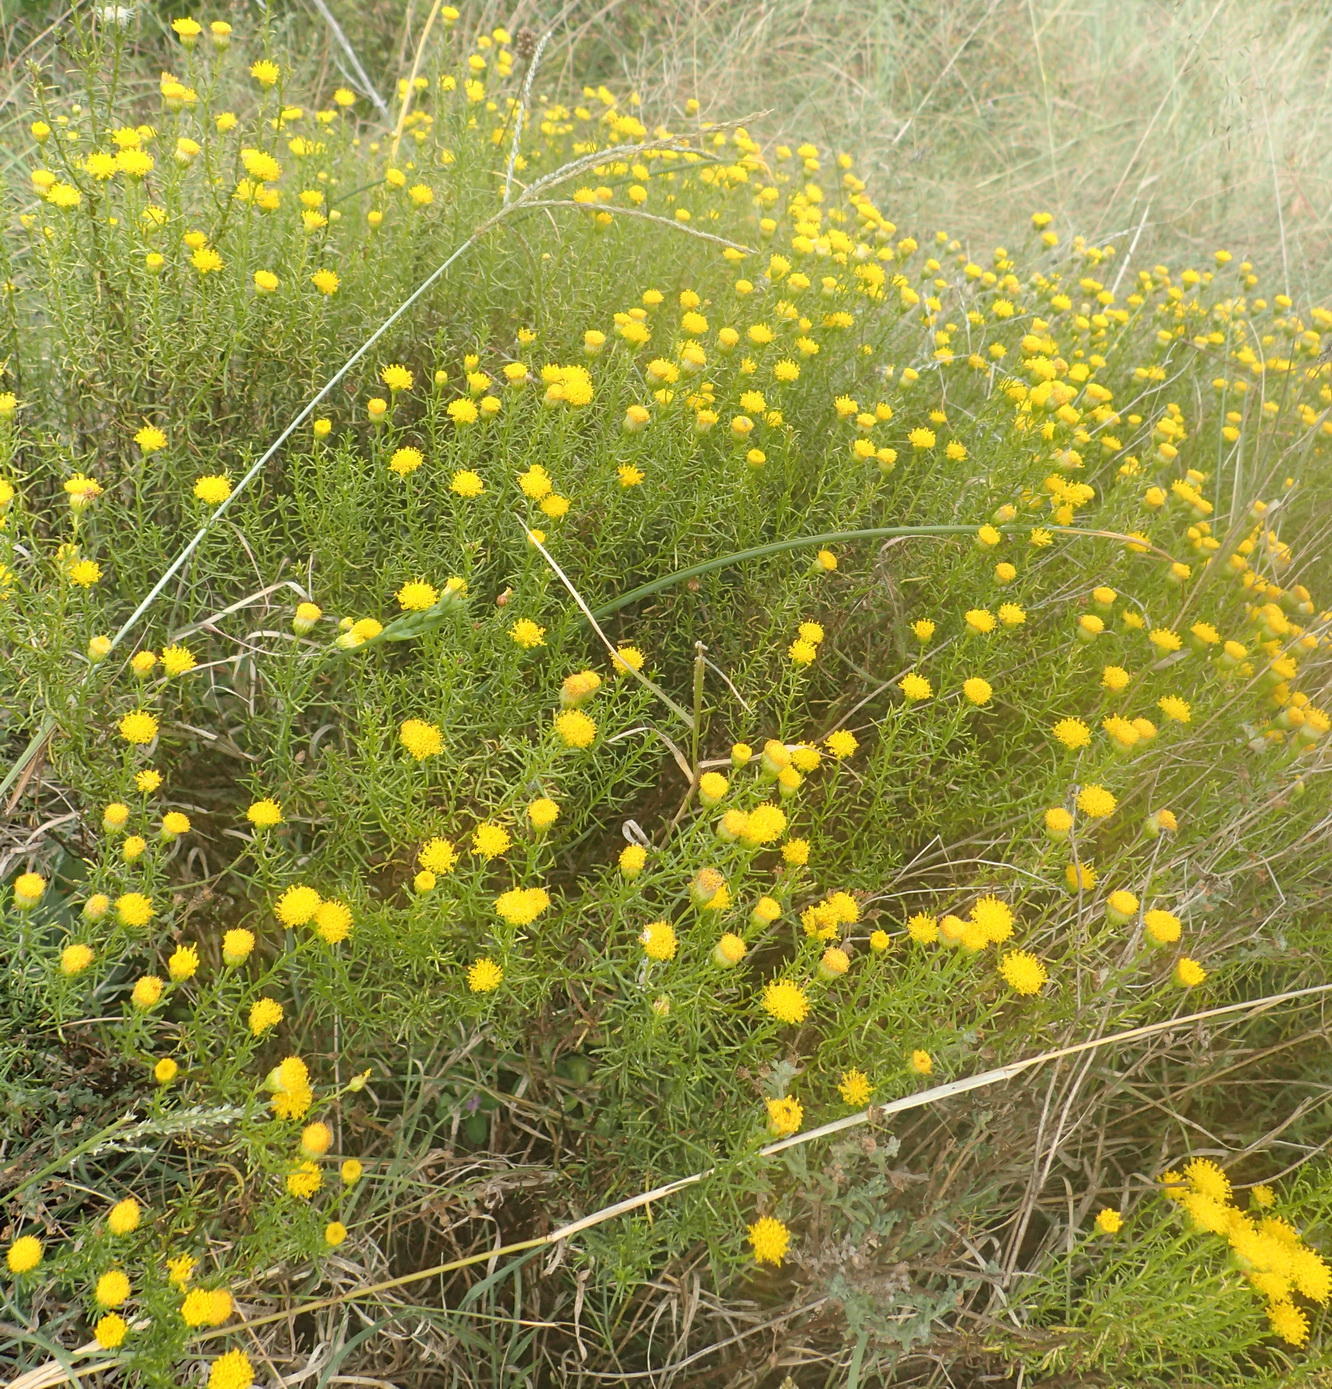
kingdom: Plantae
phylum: Tracheophyta
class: Magnoliopsida
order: Asterales
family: Asteraceae
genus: Chrysocoma
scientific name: Chrysocoma ciliata
